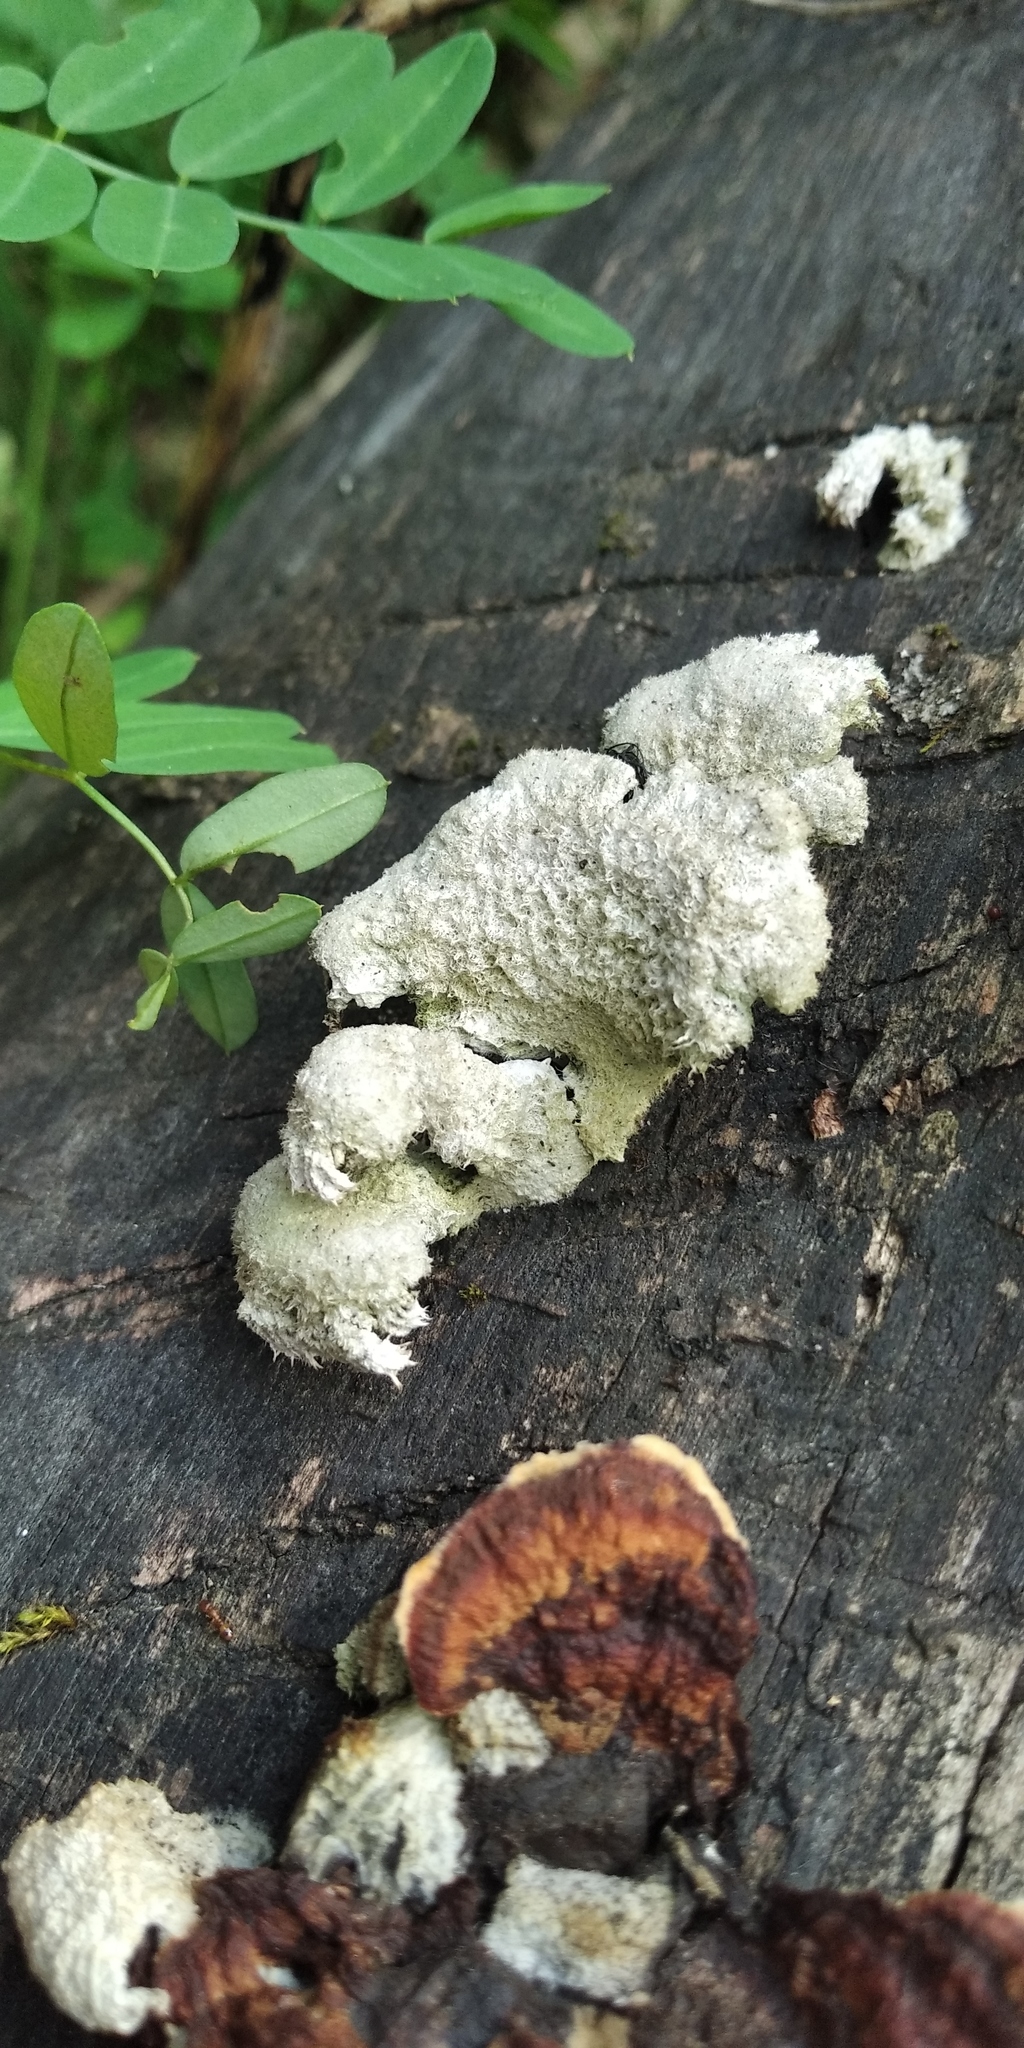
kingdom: Fungi
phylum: Basidiomycota
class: Agaricomycetes
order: Agaricales
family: Schizophyllaceae
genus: Schizophyllum
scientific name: Schizophyllum commune
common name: Common porecrust
